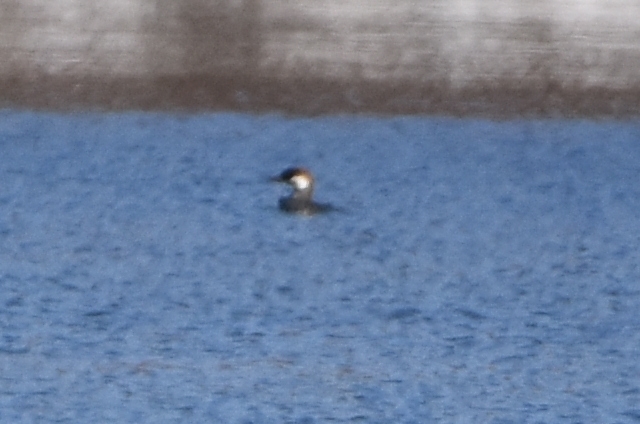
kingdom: Animalia
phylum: Chordata
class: Aves
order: Anseriformes
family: Anatidae
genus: Mergellus
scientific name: Mergellus albellus
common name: Smew
